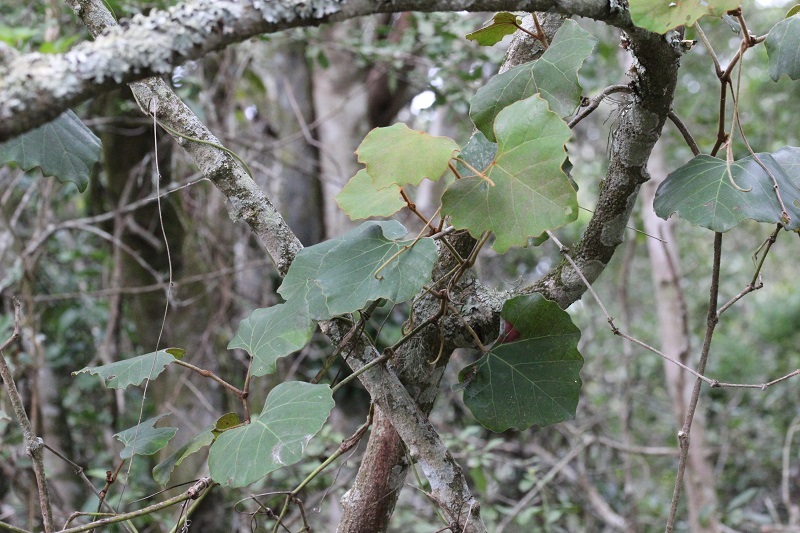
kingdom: Plantae
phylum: Tracheophyta
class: Magnoliopsida
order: Vitales
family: Vitaceae
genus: Rhoicissus
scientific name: Rhoicissus tomentosa
